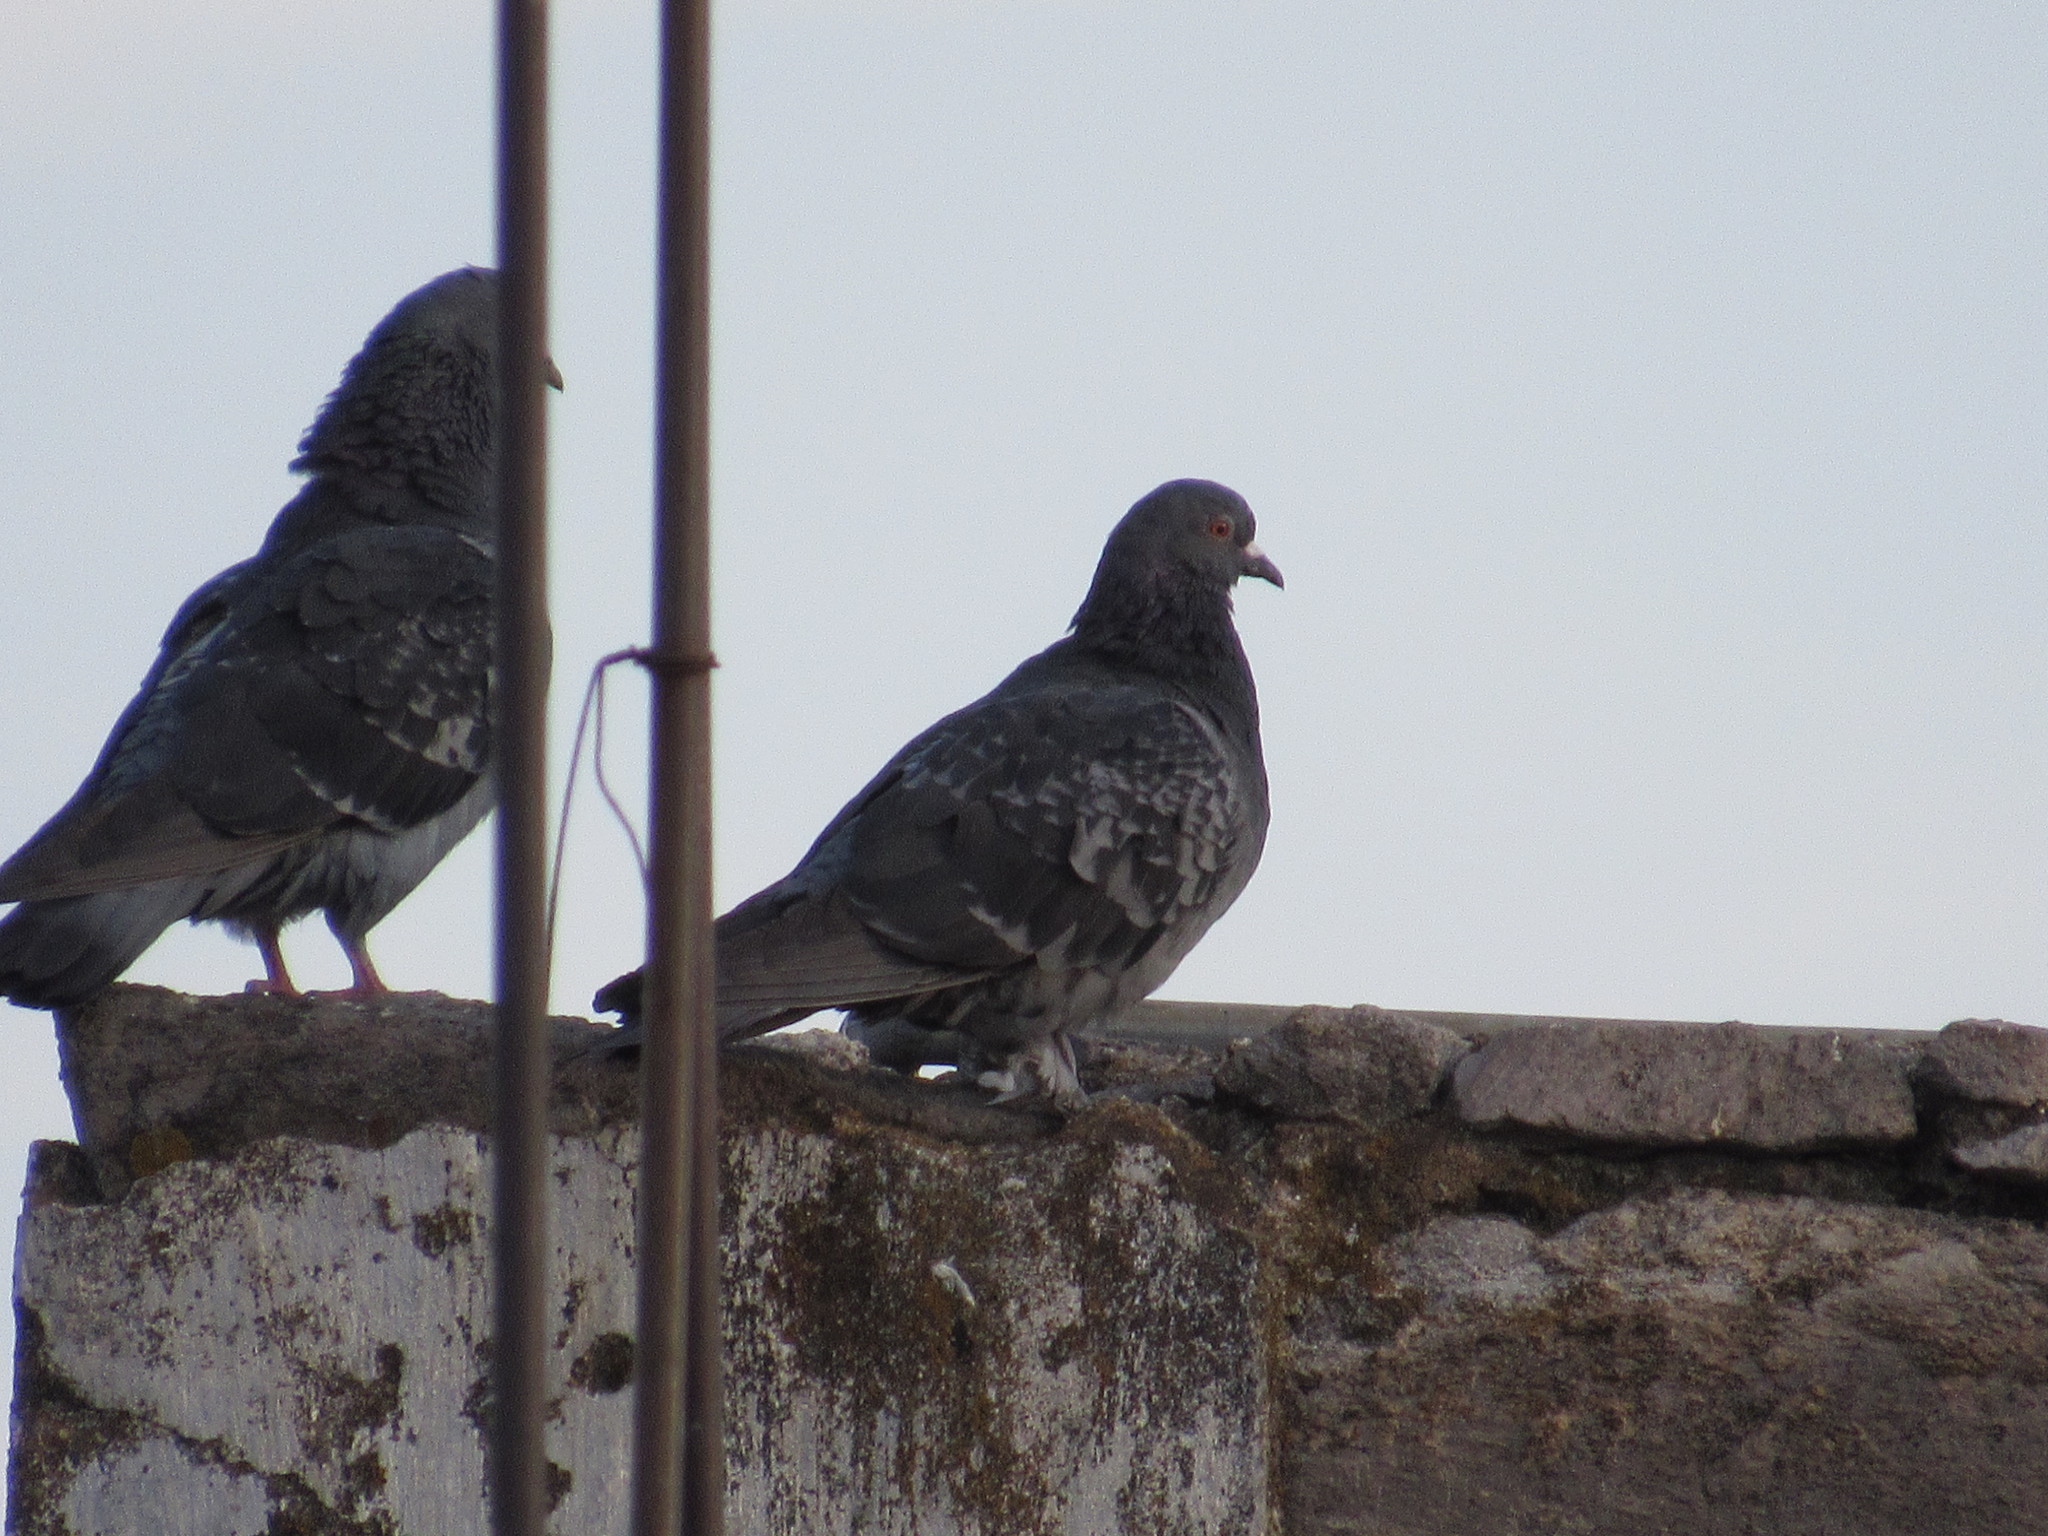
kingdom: Animalia
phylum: Chordata
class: Aves
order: Columbiformes
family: Columbidae
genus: Columba
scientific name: Columba livia
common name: Rock pigeon
